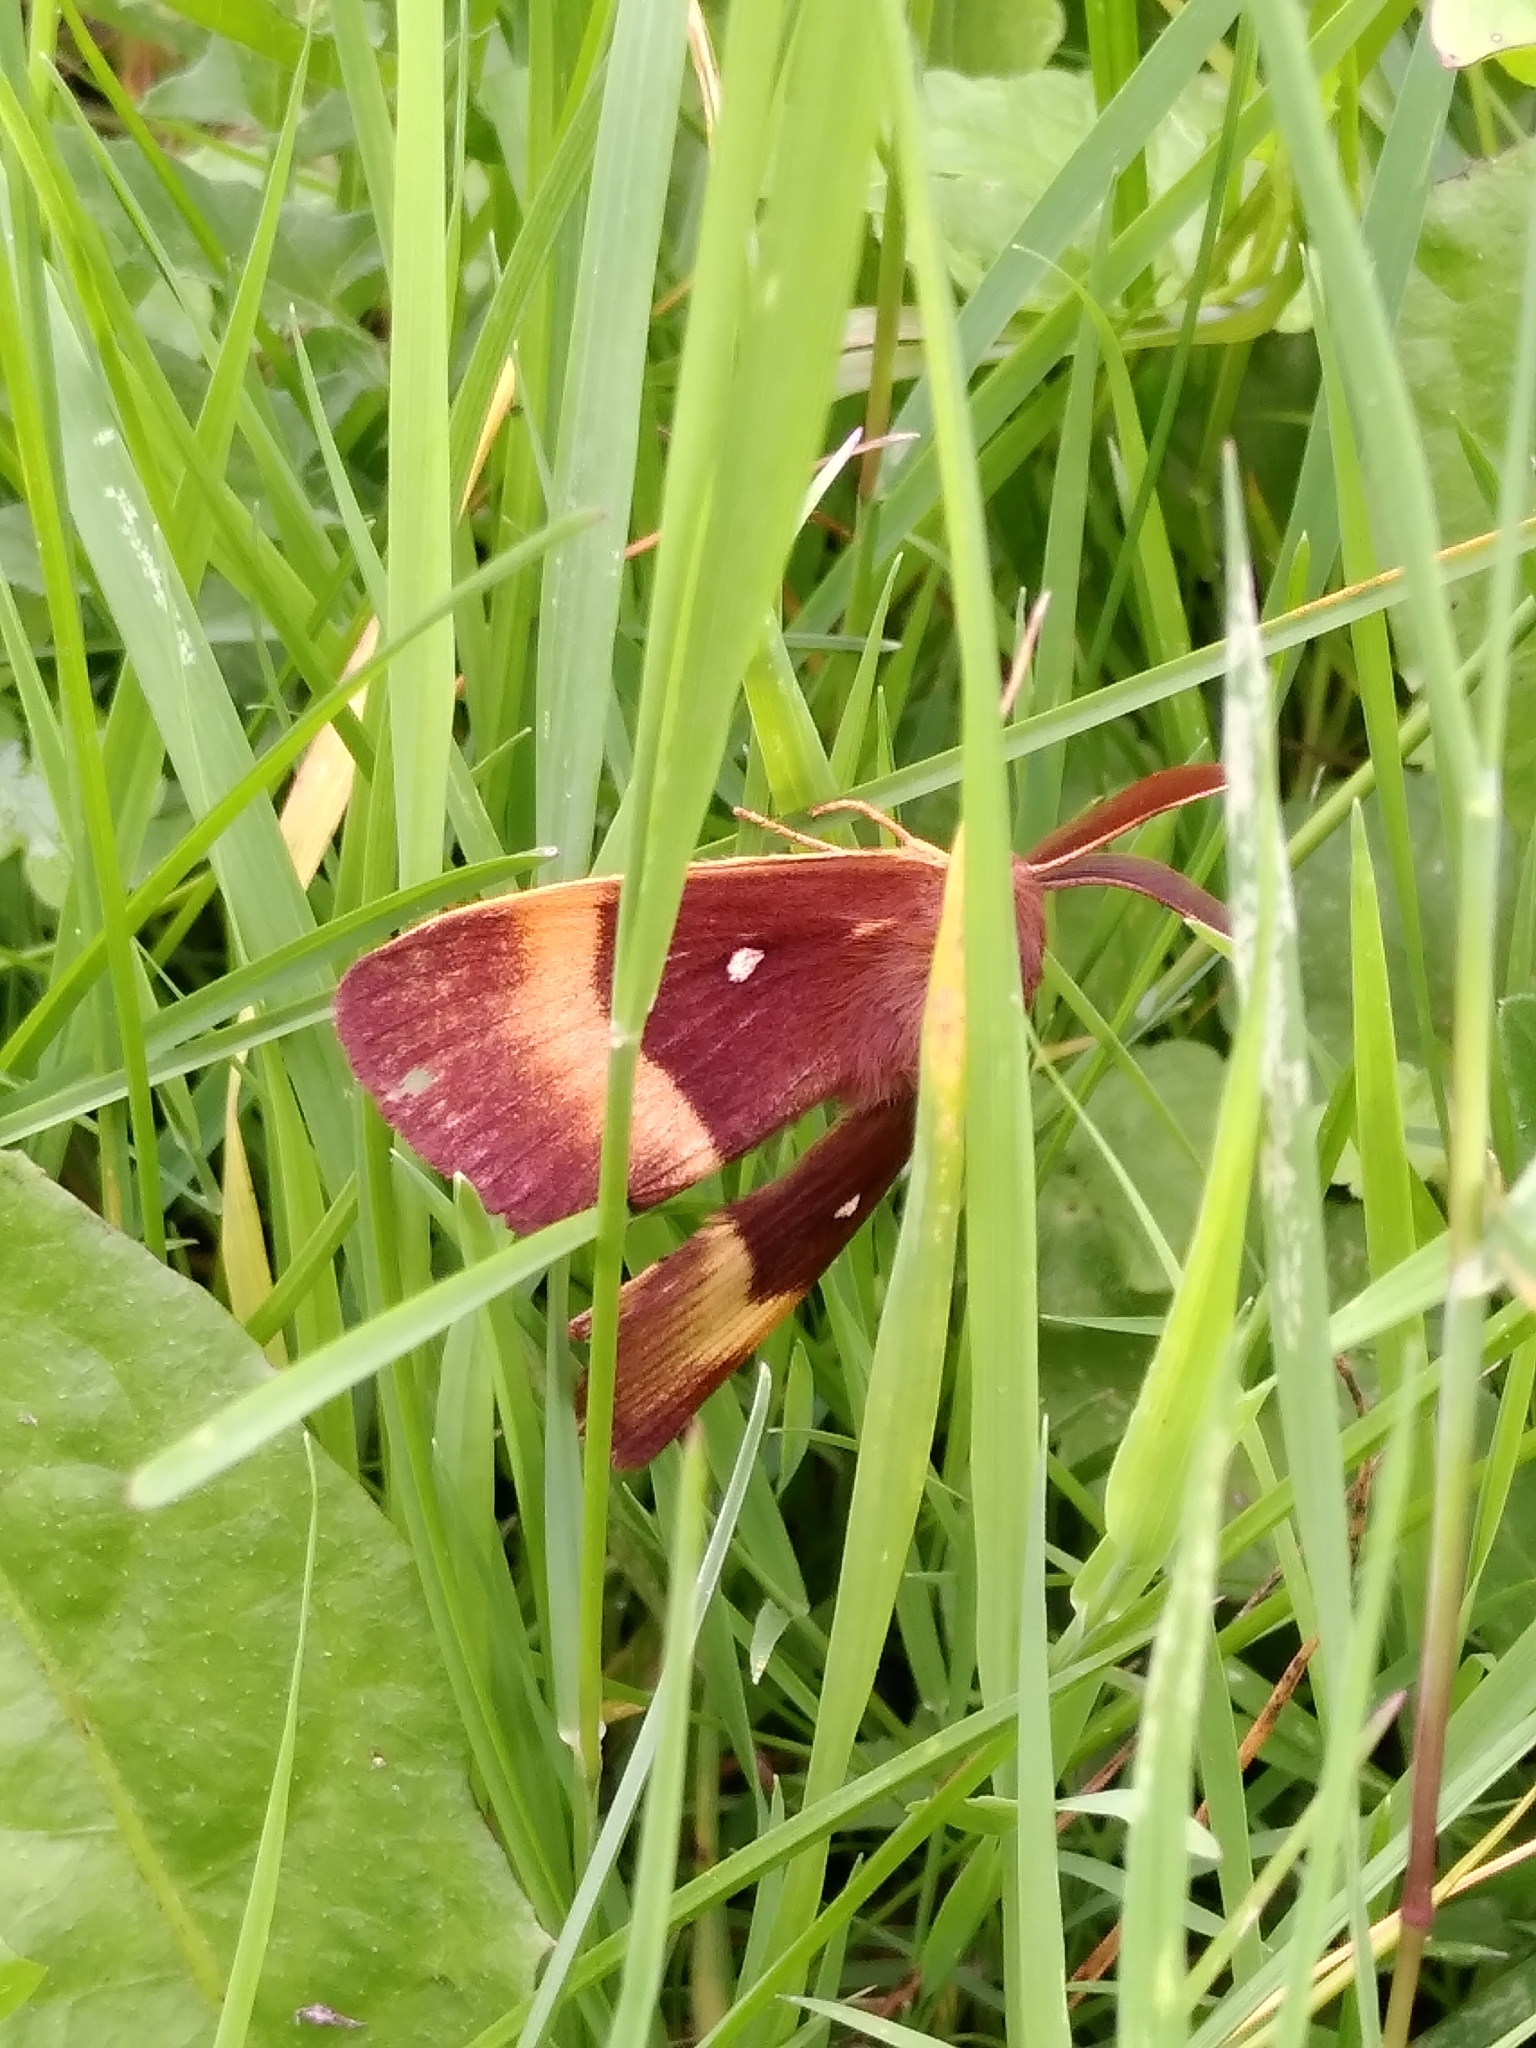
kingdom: Animalia
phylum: Arthropoda
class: Insecta
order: Lepidoptera
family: Lasiocampidae
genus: Lasiocampa
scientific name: Lasiocampa quercus
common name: Oak eggar
